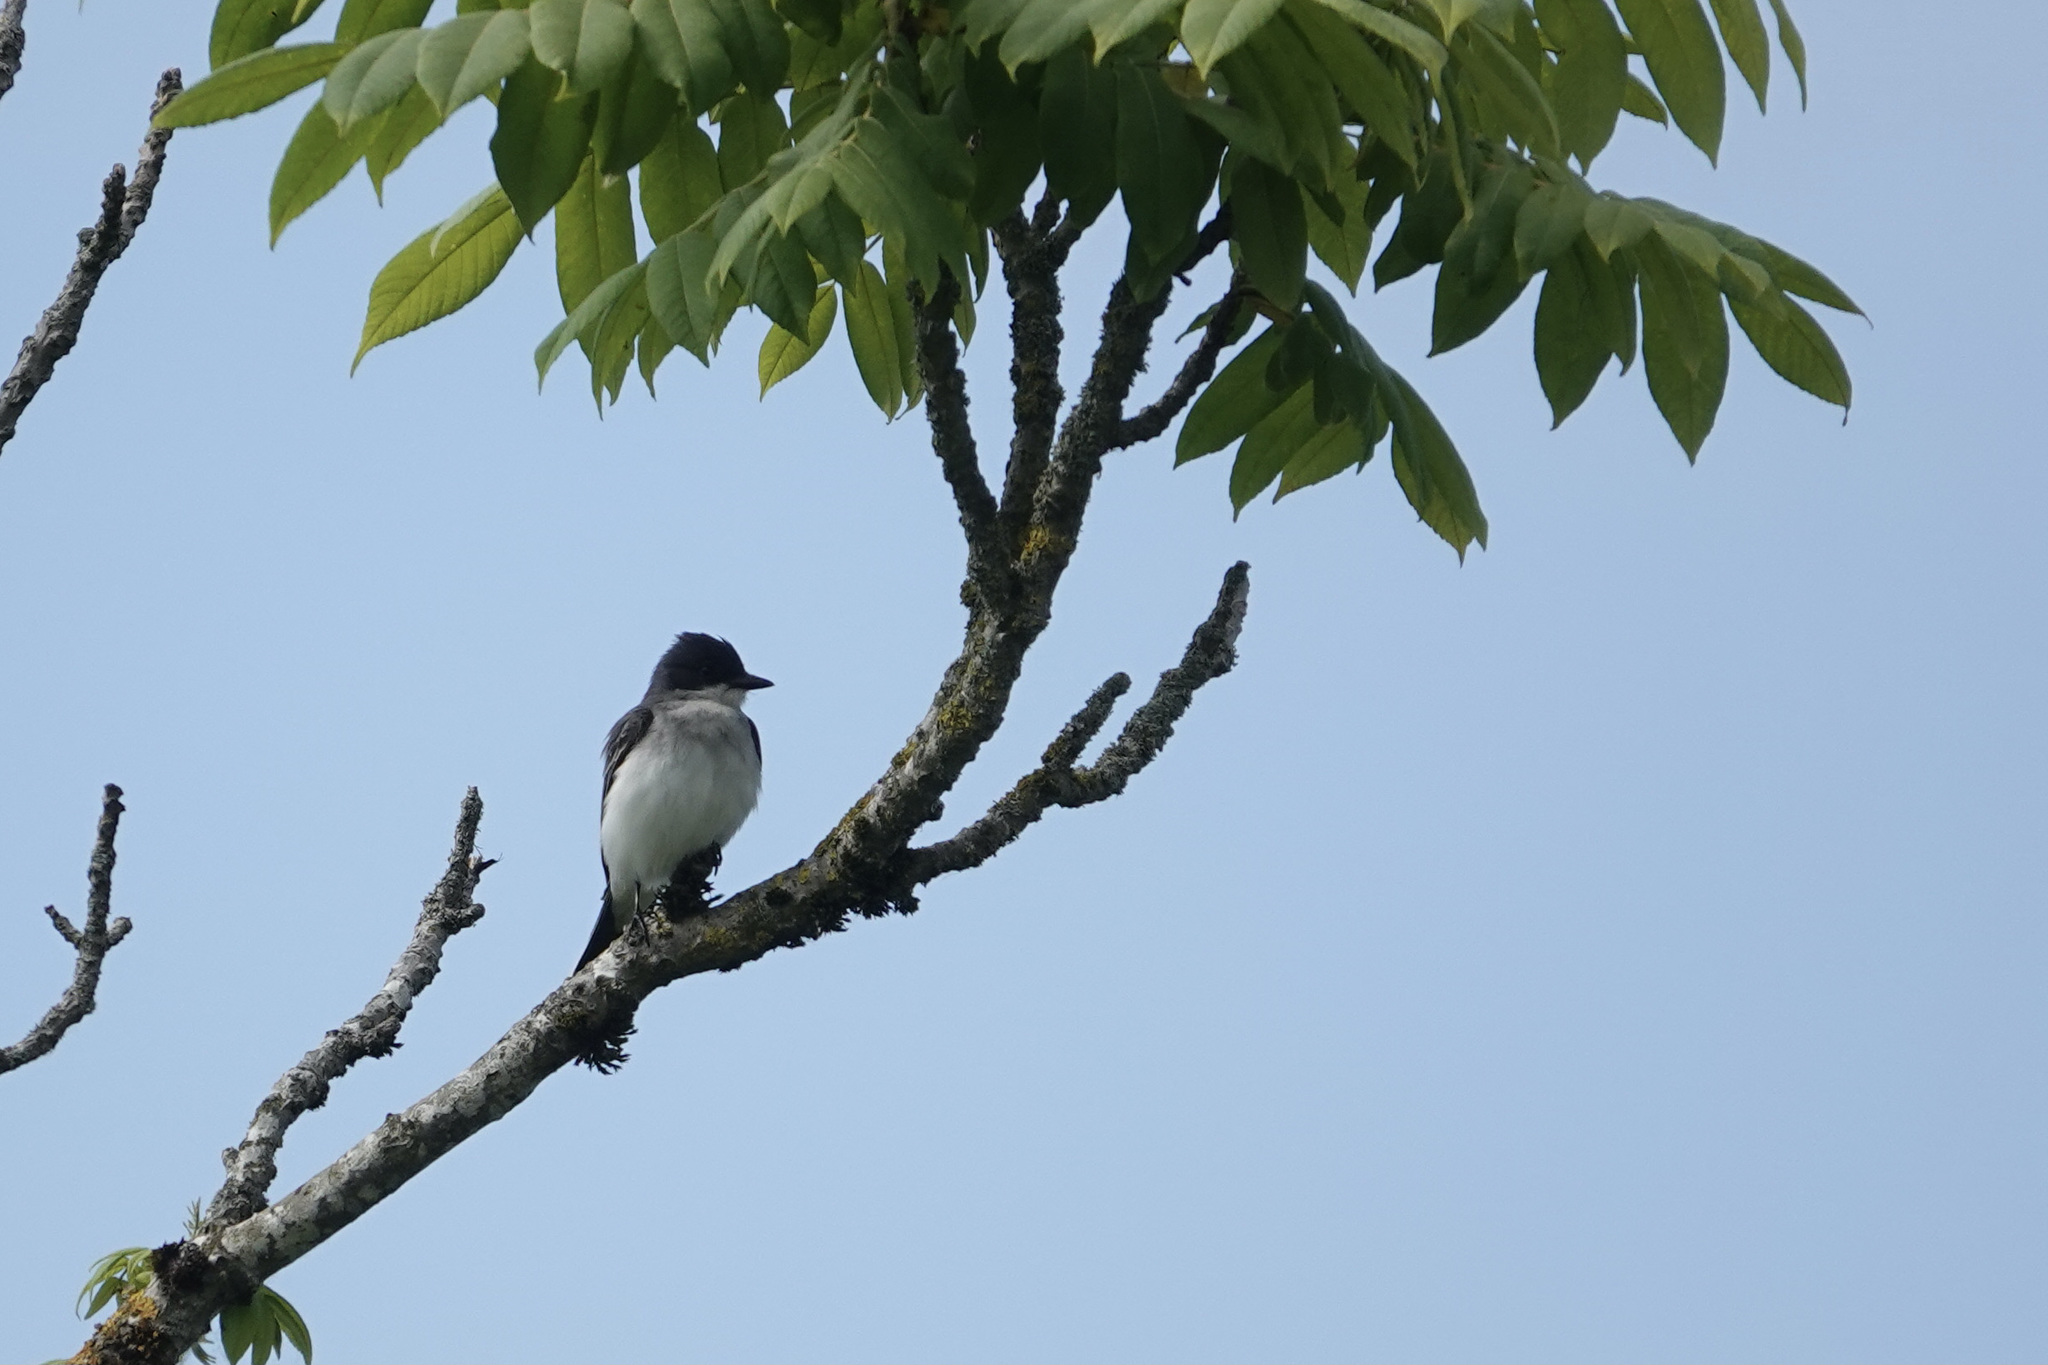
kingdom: Animalia
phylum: Chordata
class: Aves
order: Passeriformes
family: Tyrannidae
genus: Tyrannus
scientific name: Tyrannus tyrannus
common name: Eastern kingbird
